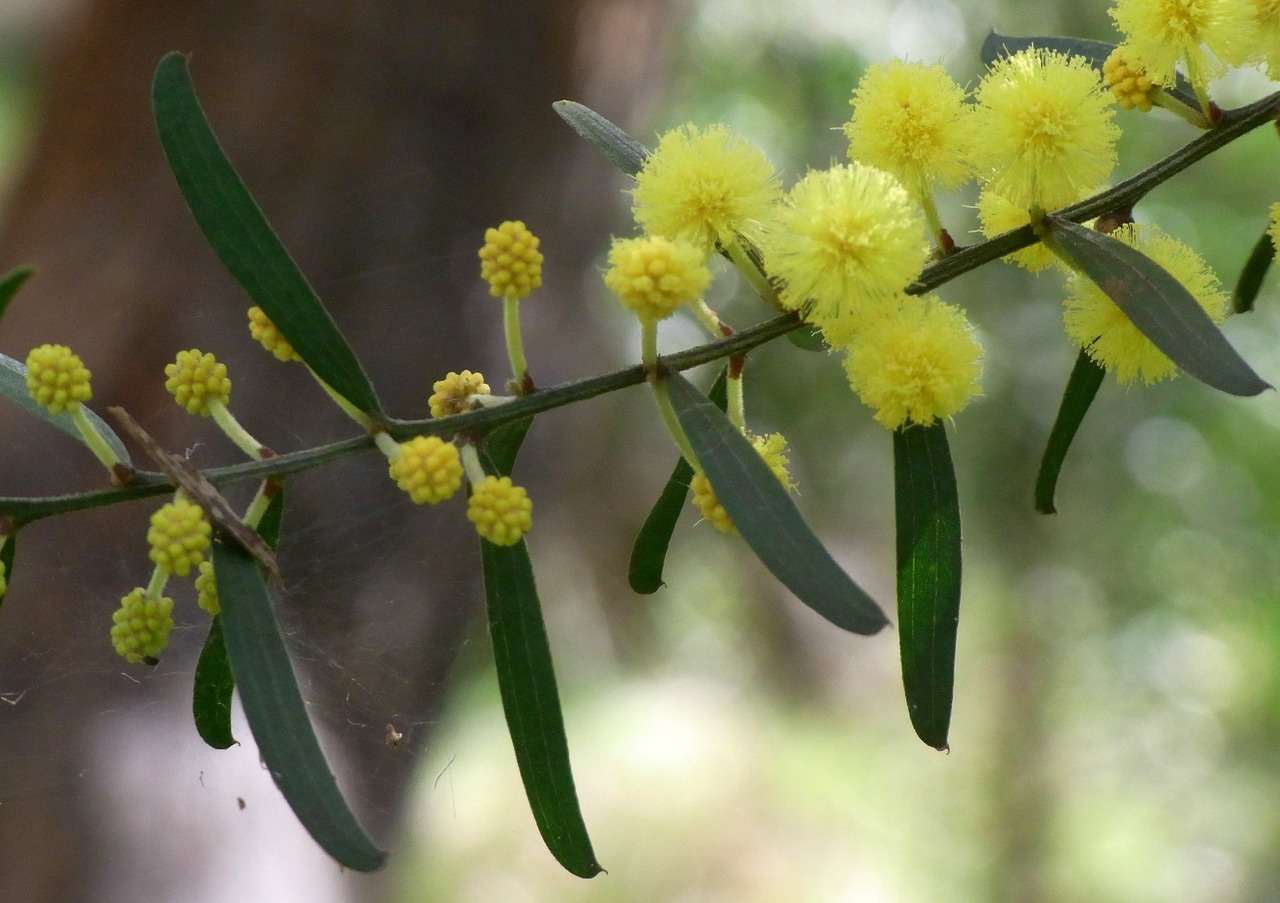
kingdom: Plantae
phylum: Tracheophyta
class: Magnoliopsida
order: Fabales
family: Fabaceae
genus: Acacia
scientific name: Acacia rostriformis
